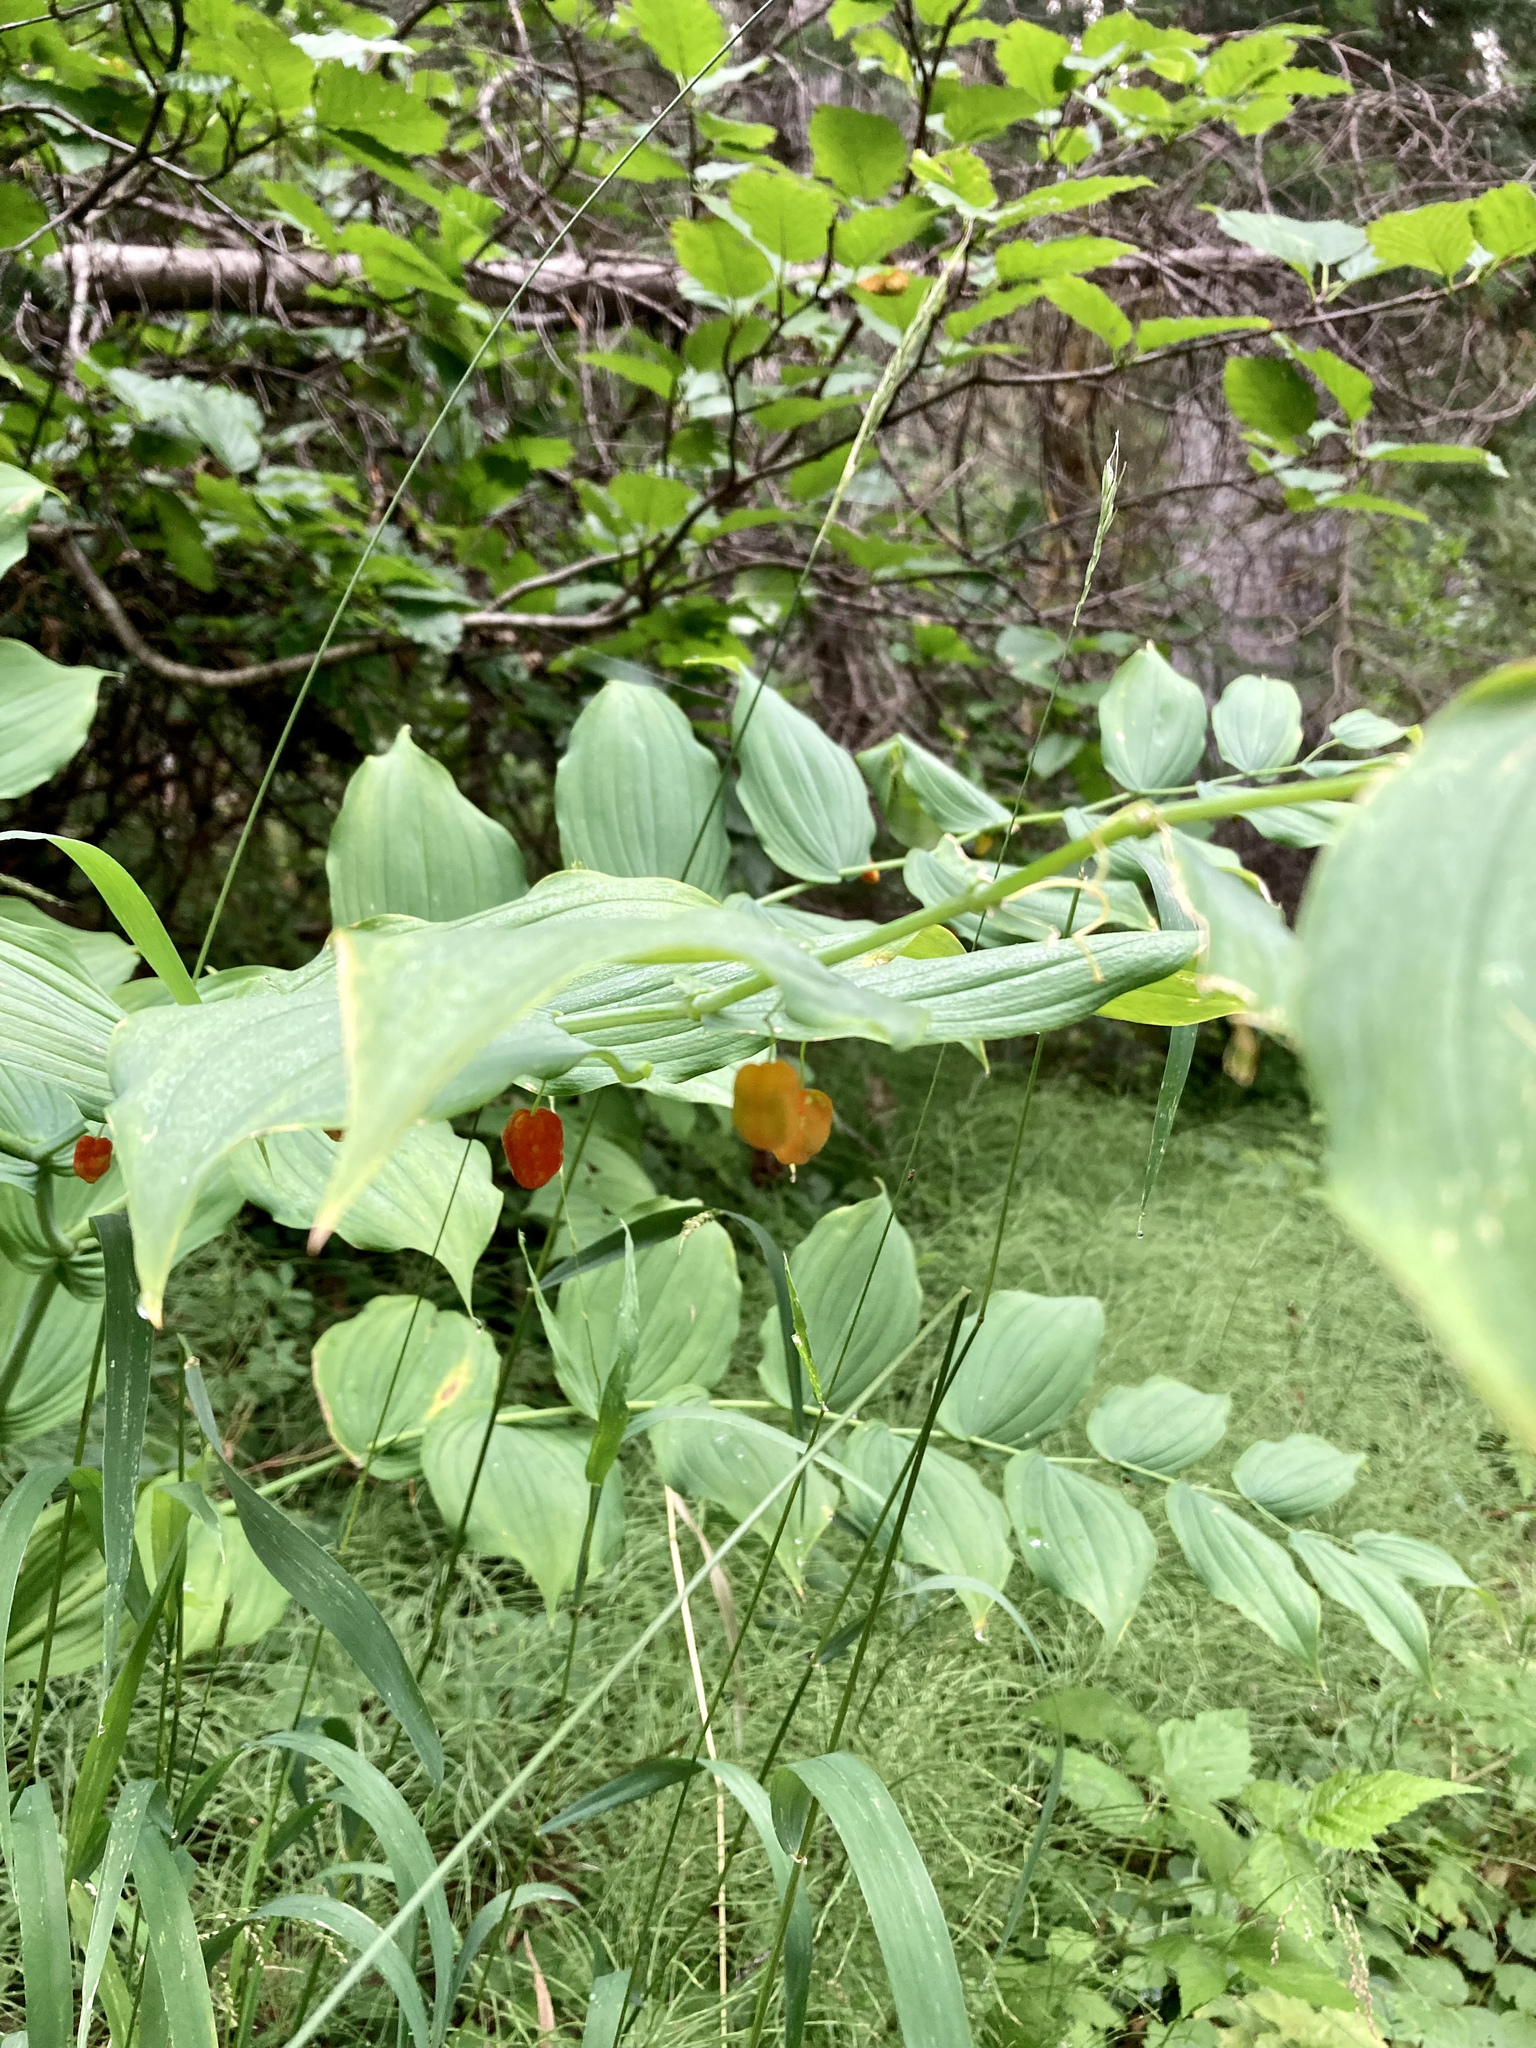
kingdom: Plantae
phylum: Tracheophyta
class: Liliopsida
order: Liliales
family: Liliaceae
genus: Streptopus
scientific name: Streptopus amplexifolius
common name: Clasp twisted stalk
